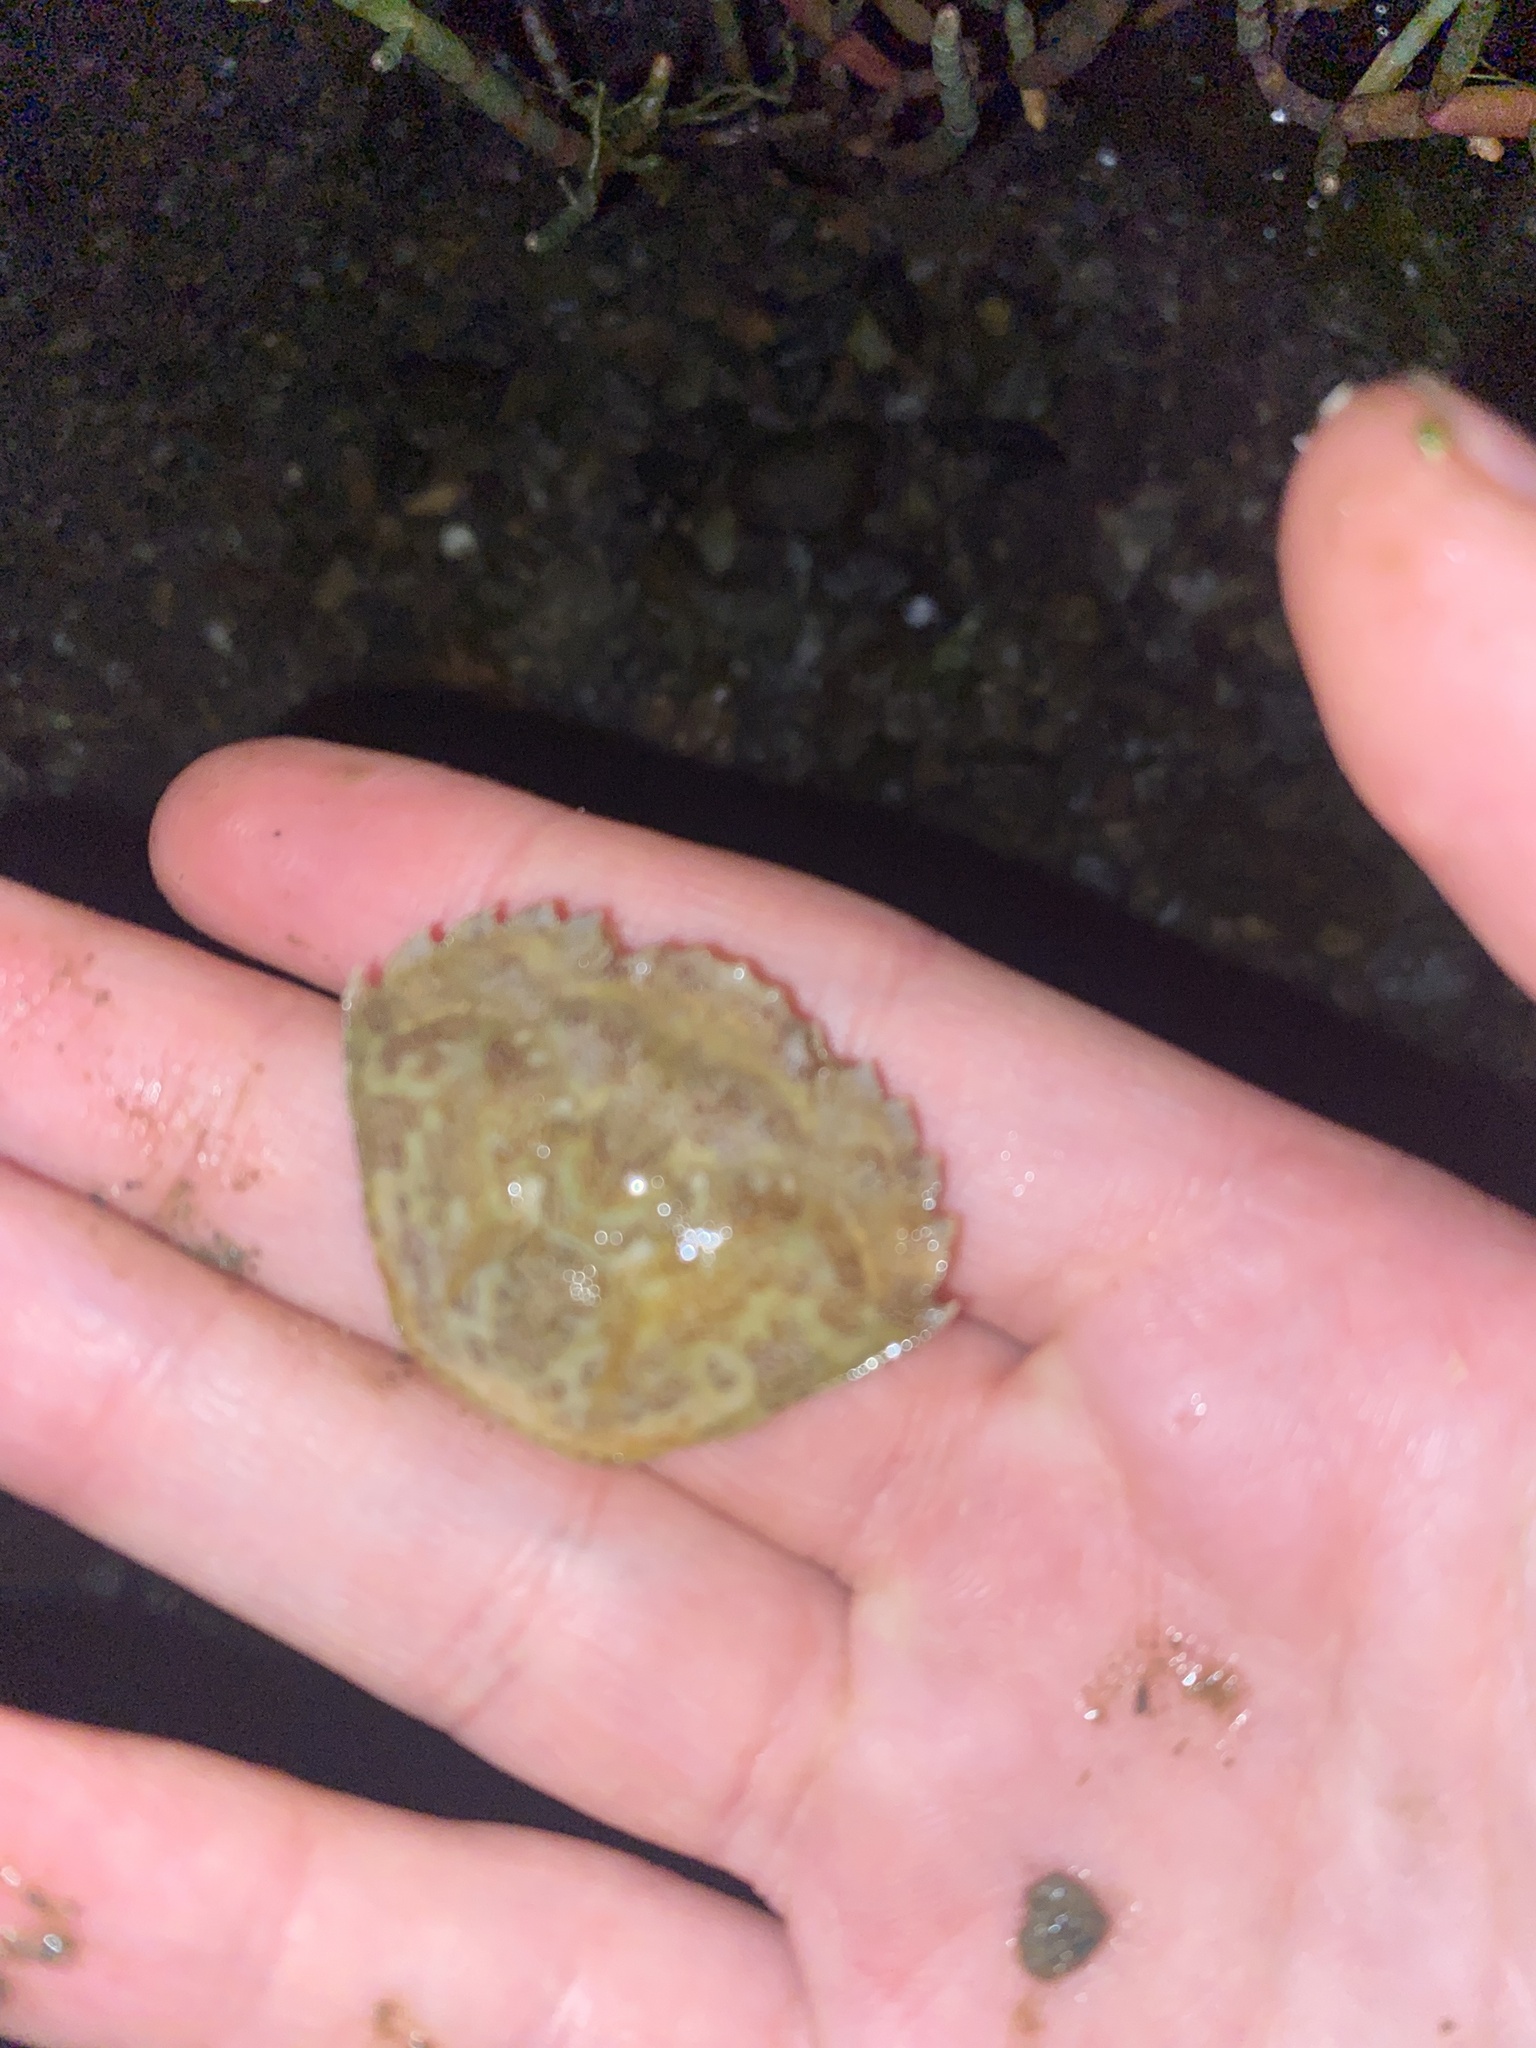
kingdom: Animalia
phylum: Arthropoda
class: Malacostraca
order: Decapoda
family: Carcinidae
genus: Carcinus
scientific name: Carcinus maenas
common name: European green crab
